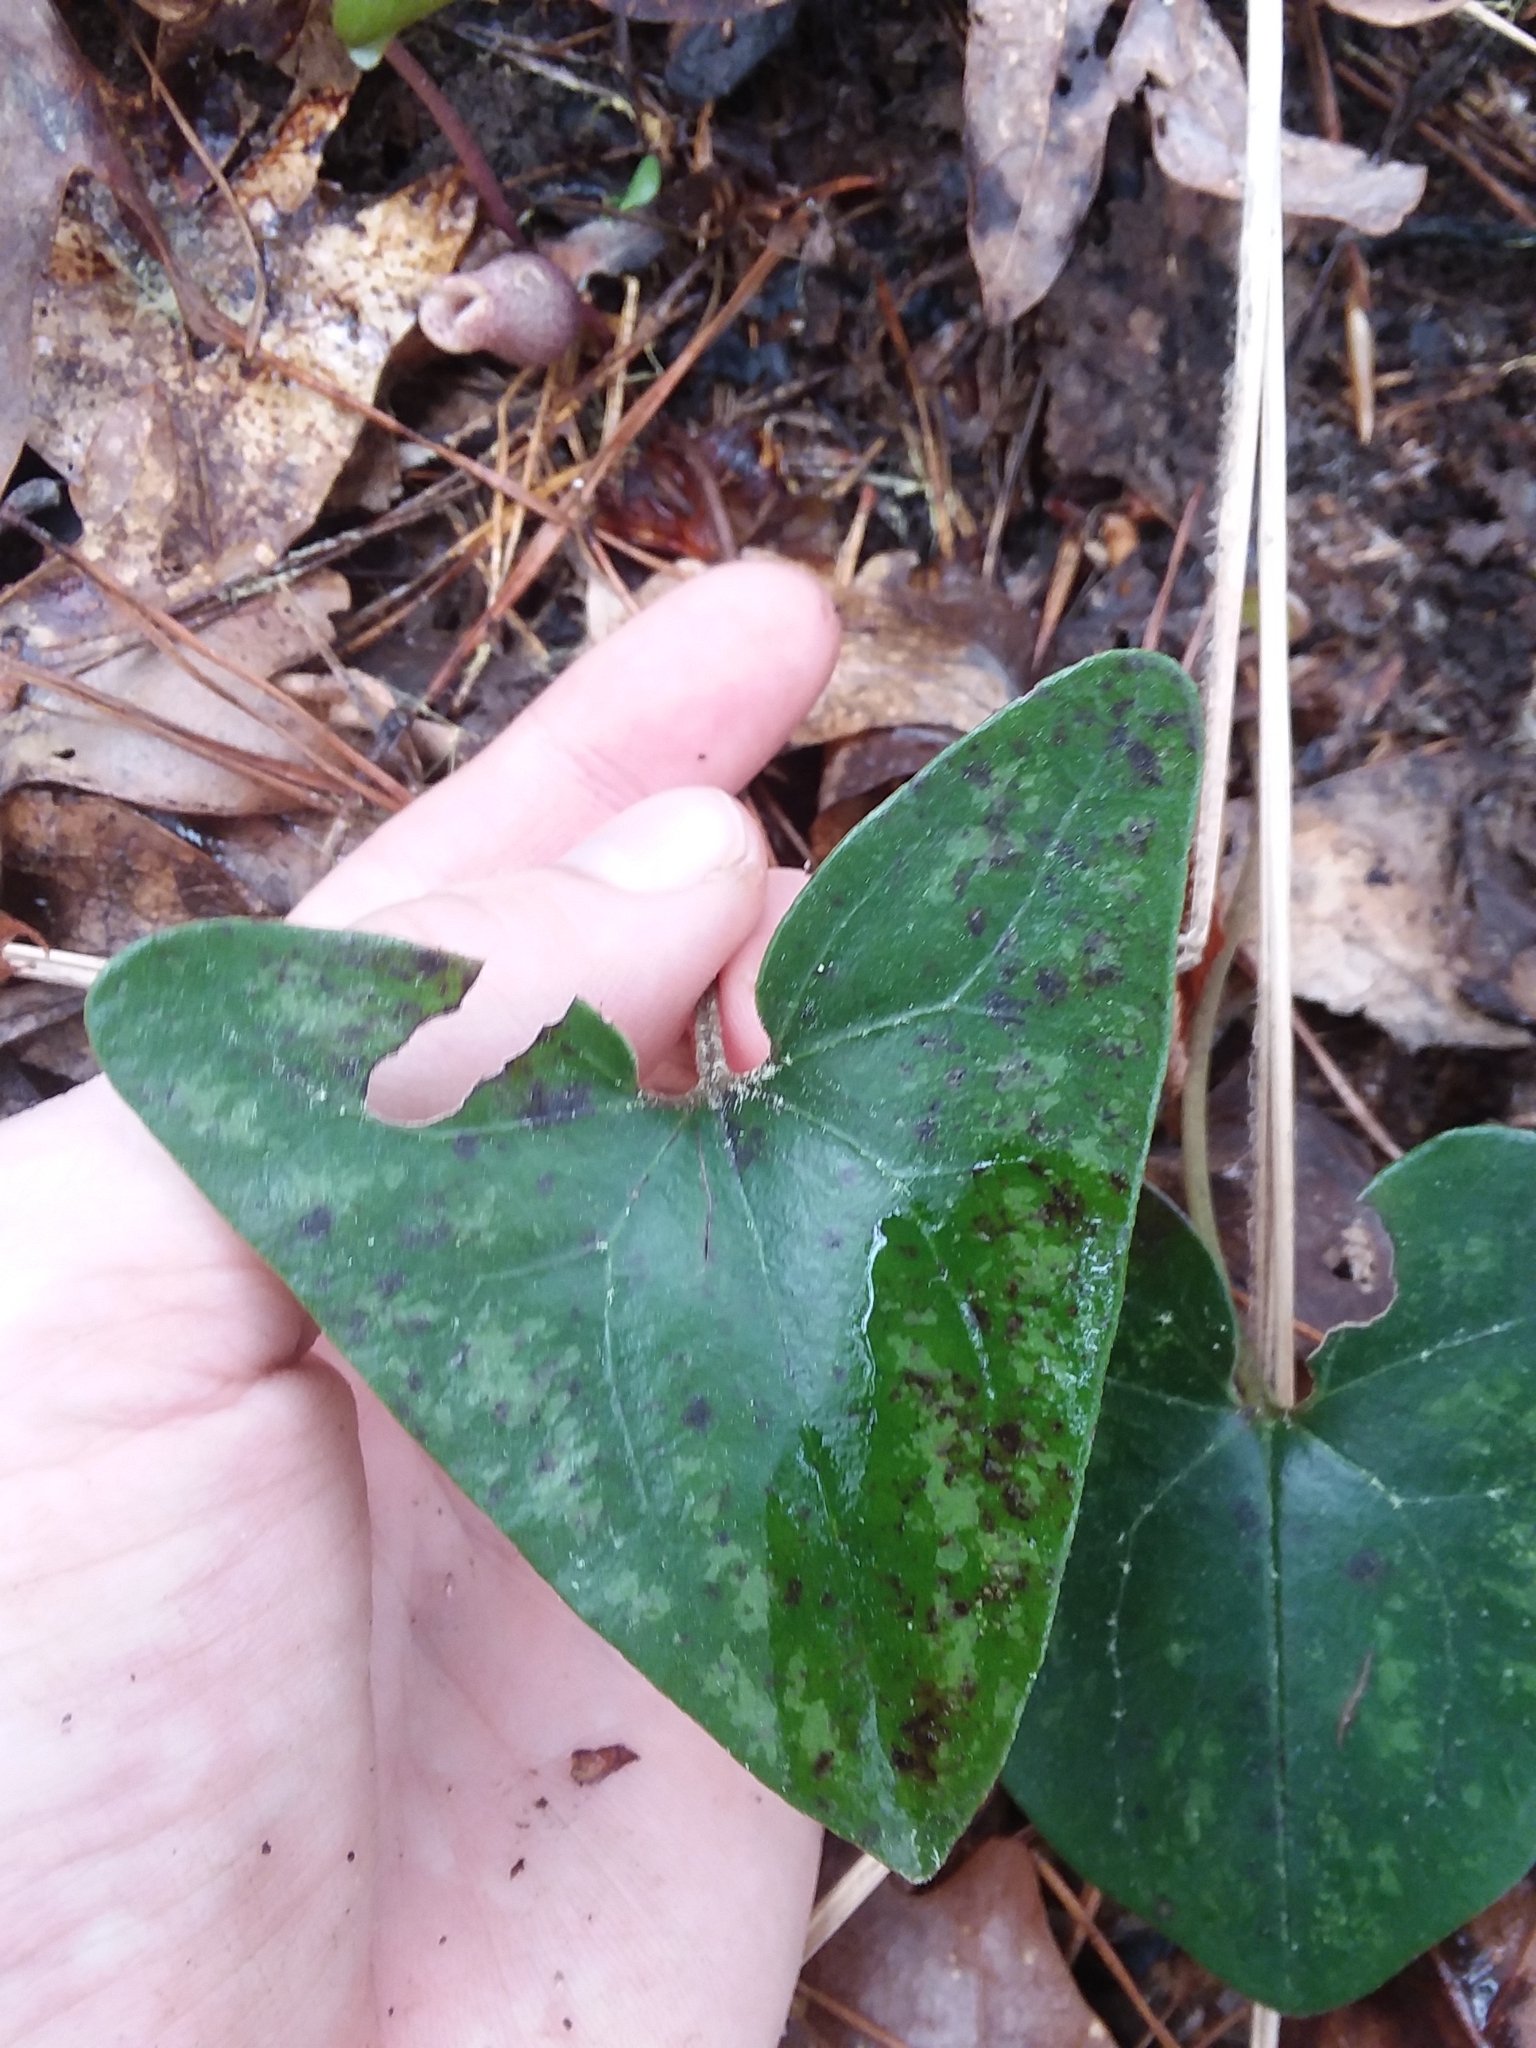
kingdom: Plantae
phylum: Tracheophyta
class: Magnoliopsida
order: Piperales
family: Aristolochiaceae
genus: Hexastylis
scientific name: Hexastylis arifolia
